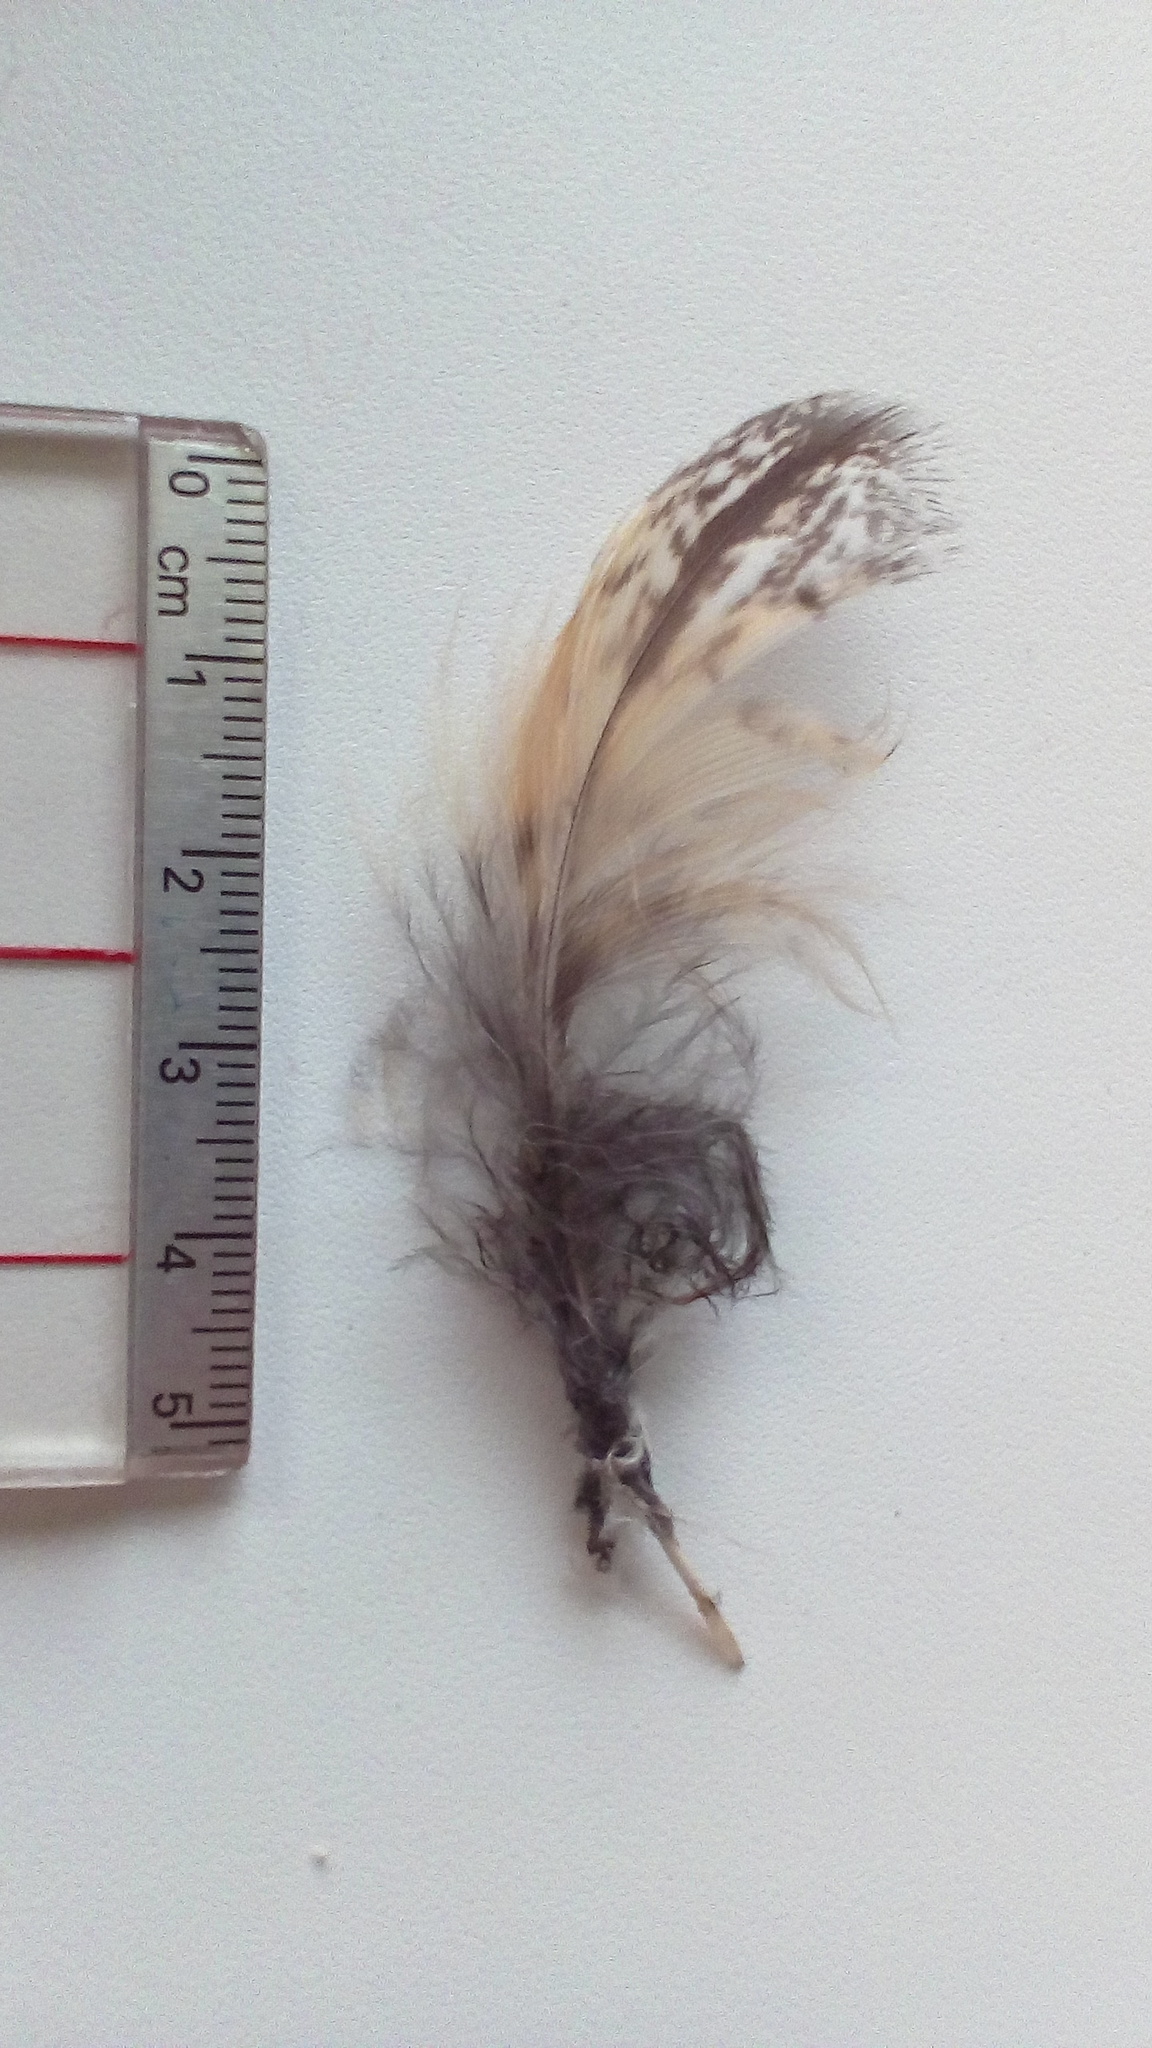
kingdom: Animalia
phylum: Chordata
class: Aves
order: Strigiformes
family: Strigidae
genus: Asio
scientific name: Asio otus
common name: Long-eared owl
